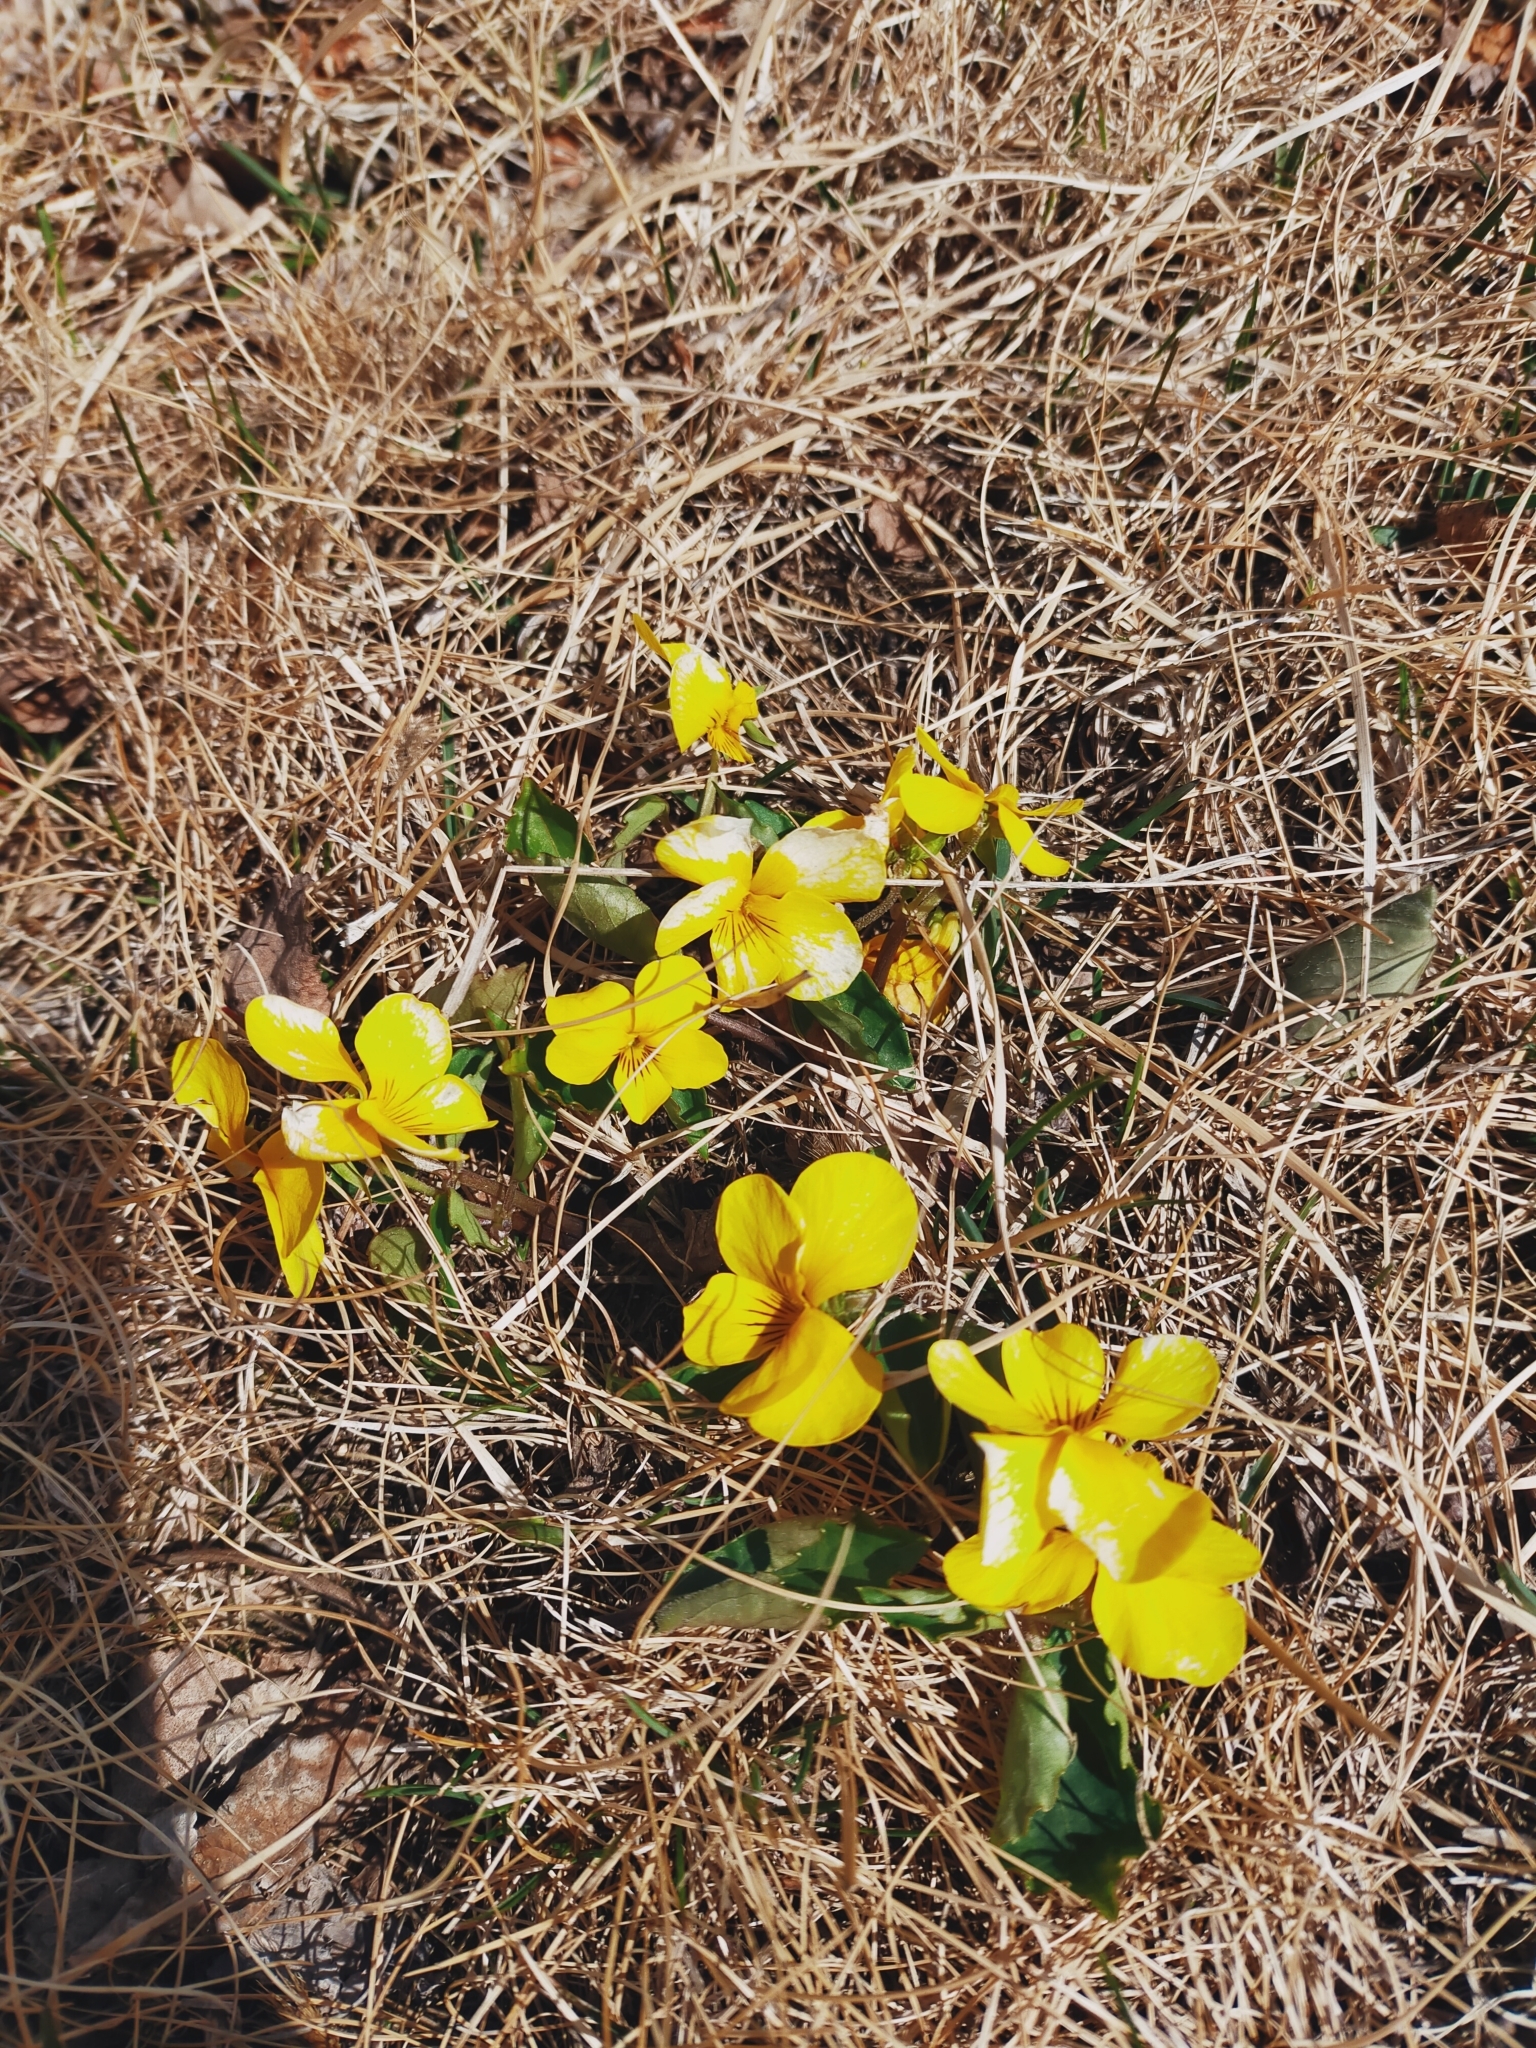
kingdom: Plantae
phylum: Tracheophyta
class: Magnoliopsida
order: Malpighiales
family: Violaceae
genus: Viola
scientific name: Viola orientalis
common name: Golden violet
